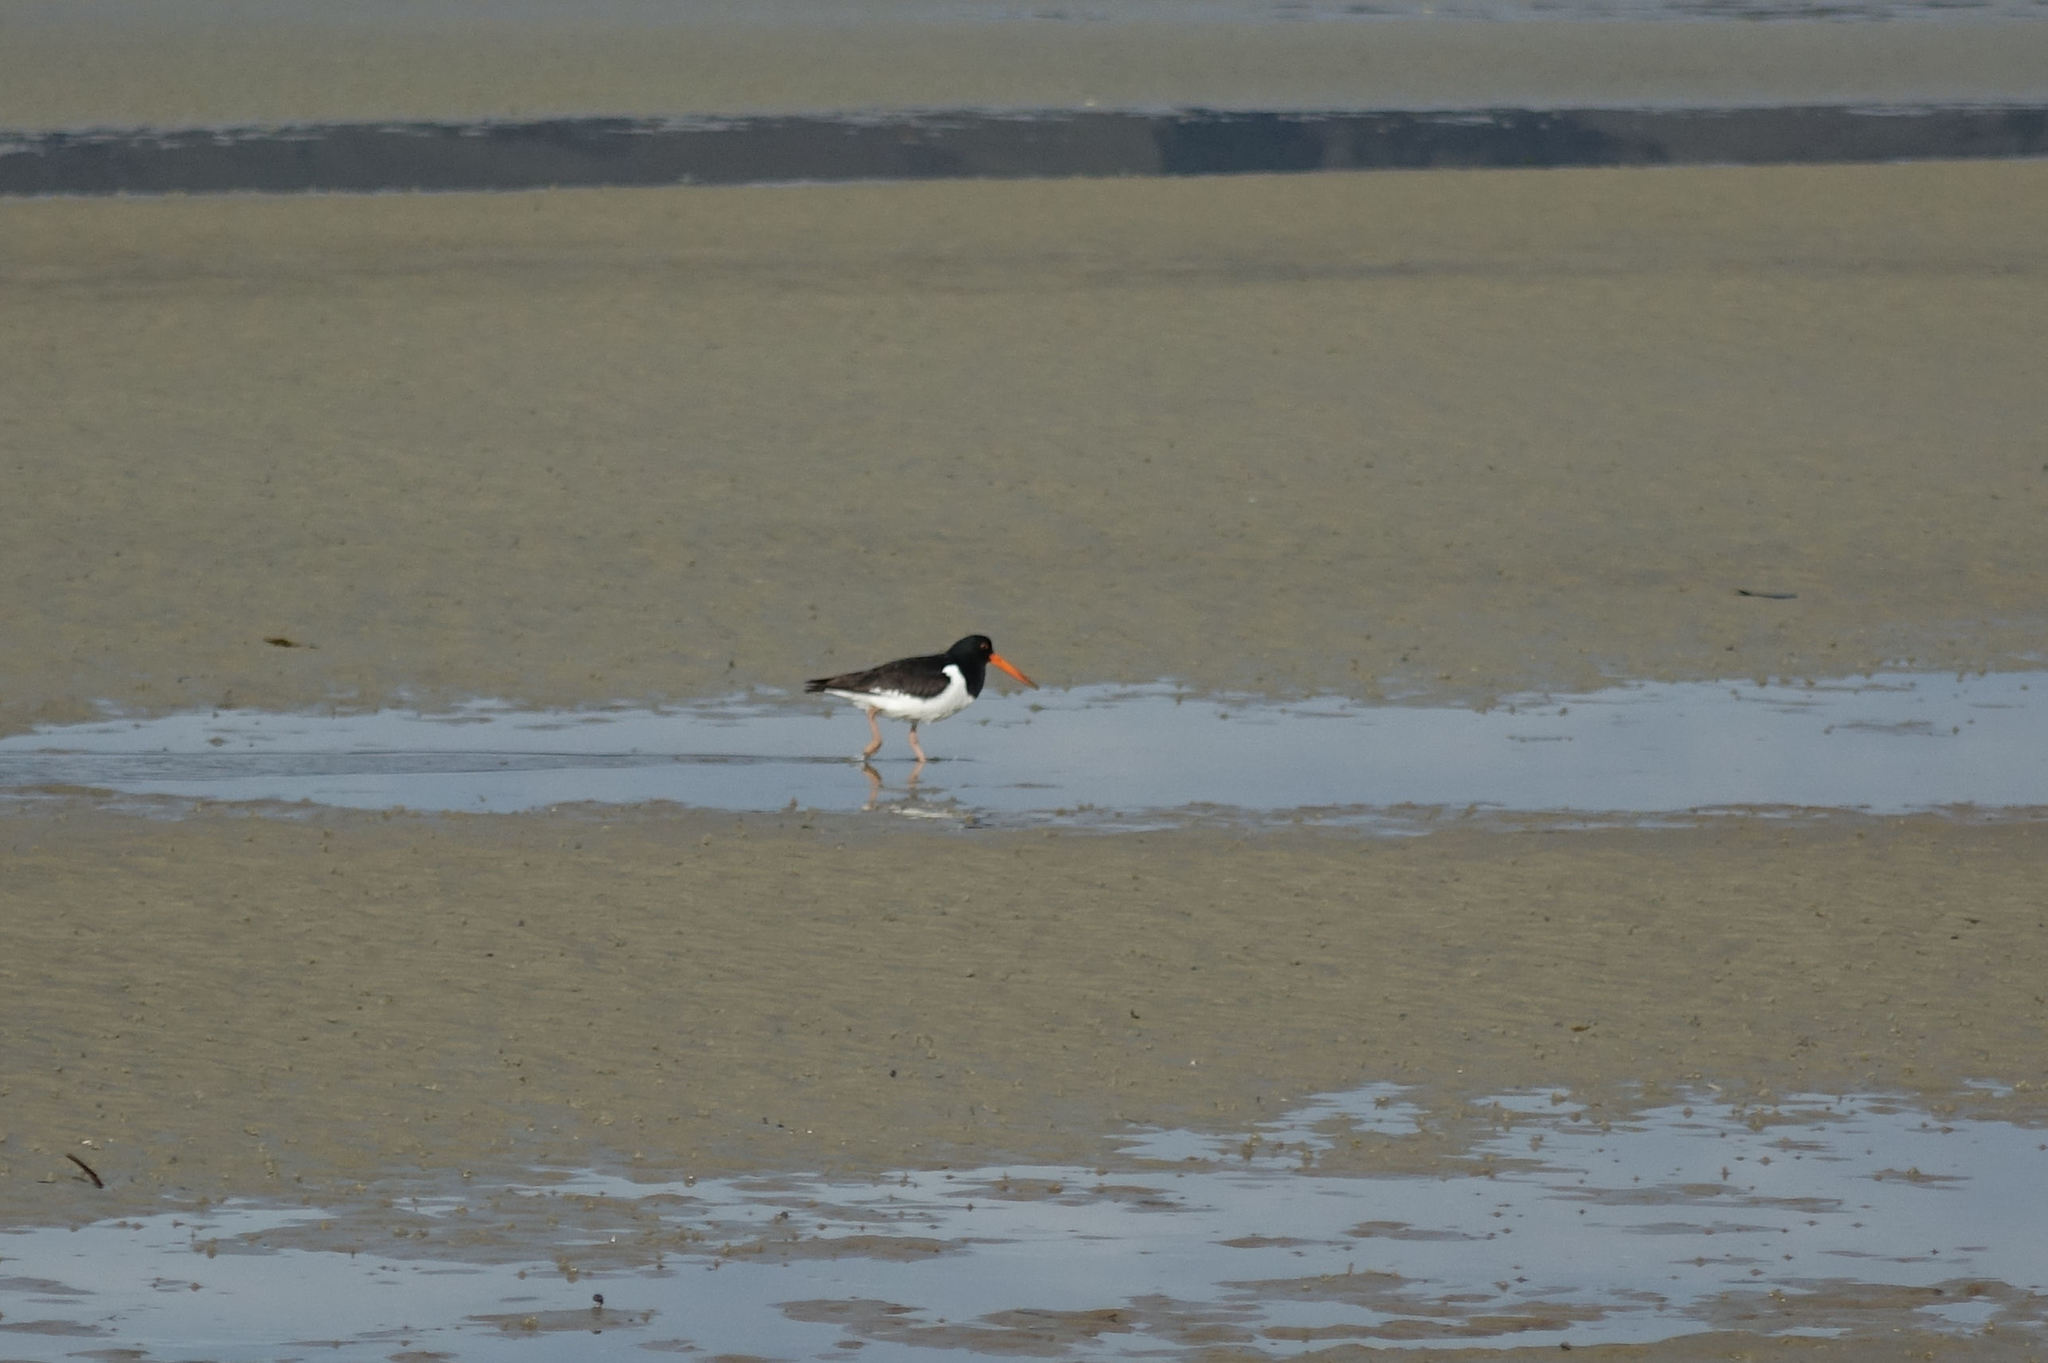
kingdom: Animalia
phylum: Chordata
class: Aves
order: Charadriiformes
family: Haematopodidae
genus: Haematopus
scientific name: Haematopus finschi
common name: South island oystercatcher
